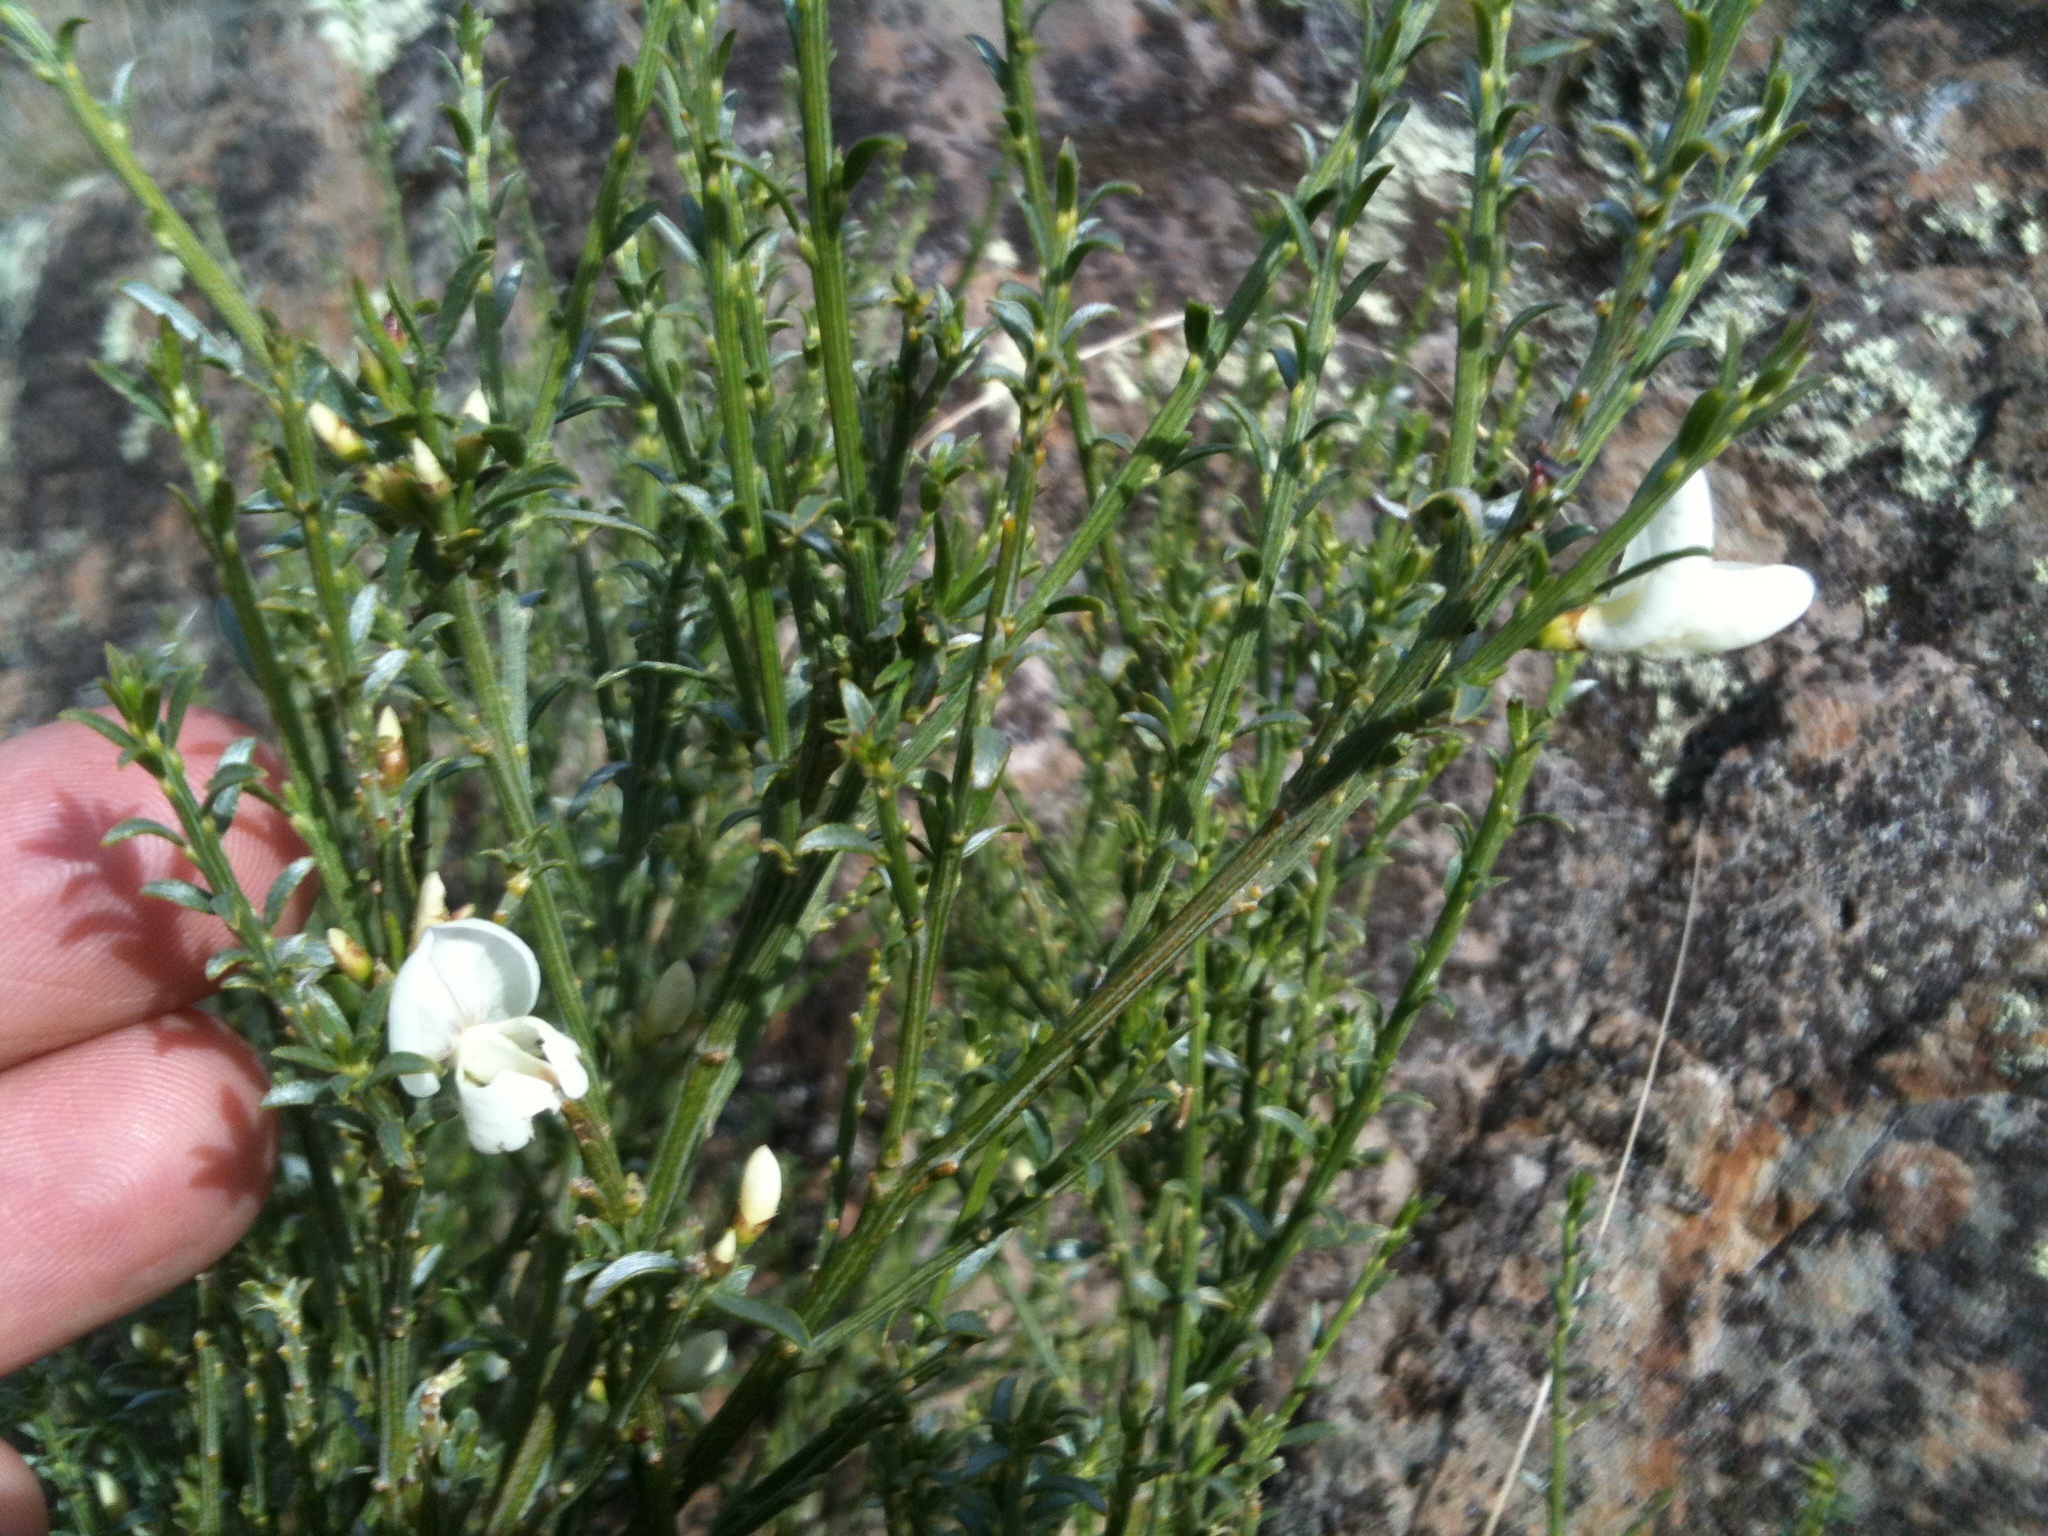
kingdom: Plantae
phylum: Tracheophyta
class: Magnoliopsida
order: Fabales
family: Fabaceae
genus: Cytisus
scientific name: Cytisus multiflorus
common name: White broom
